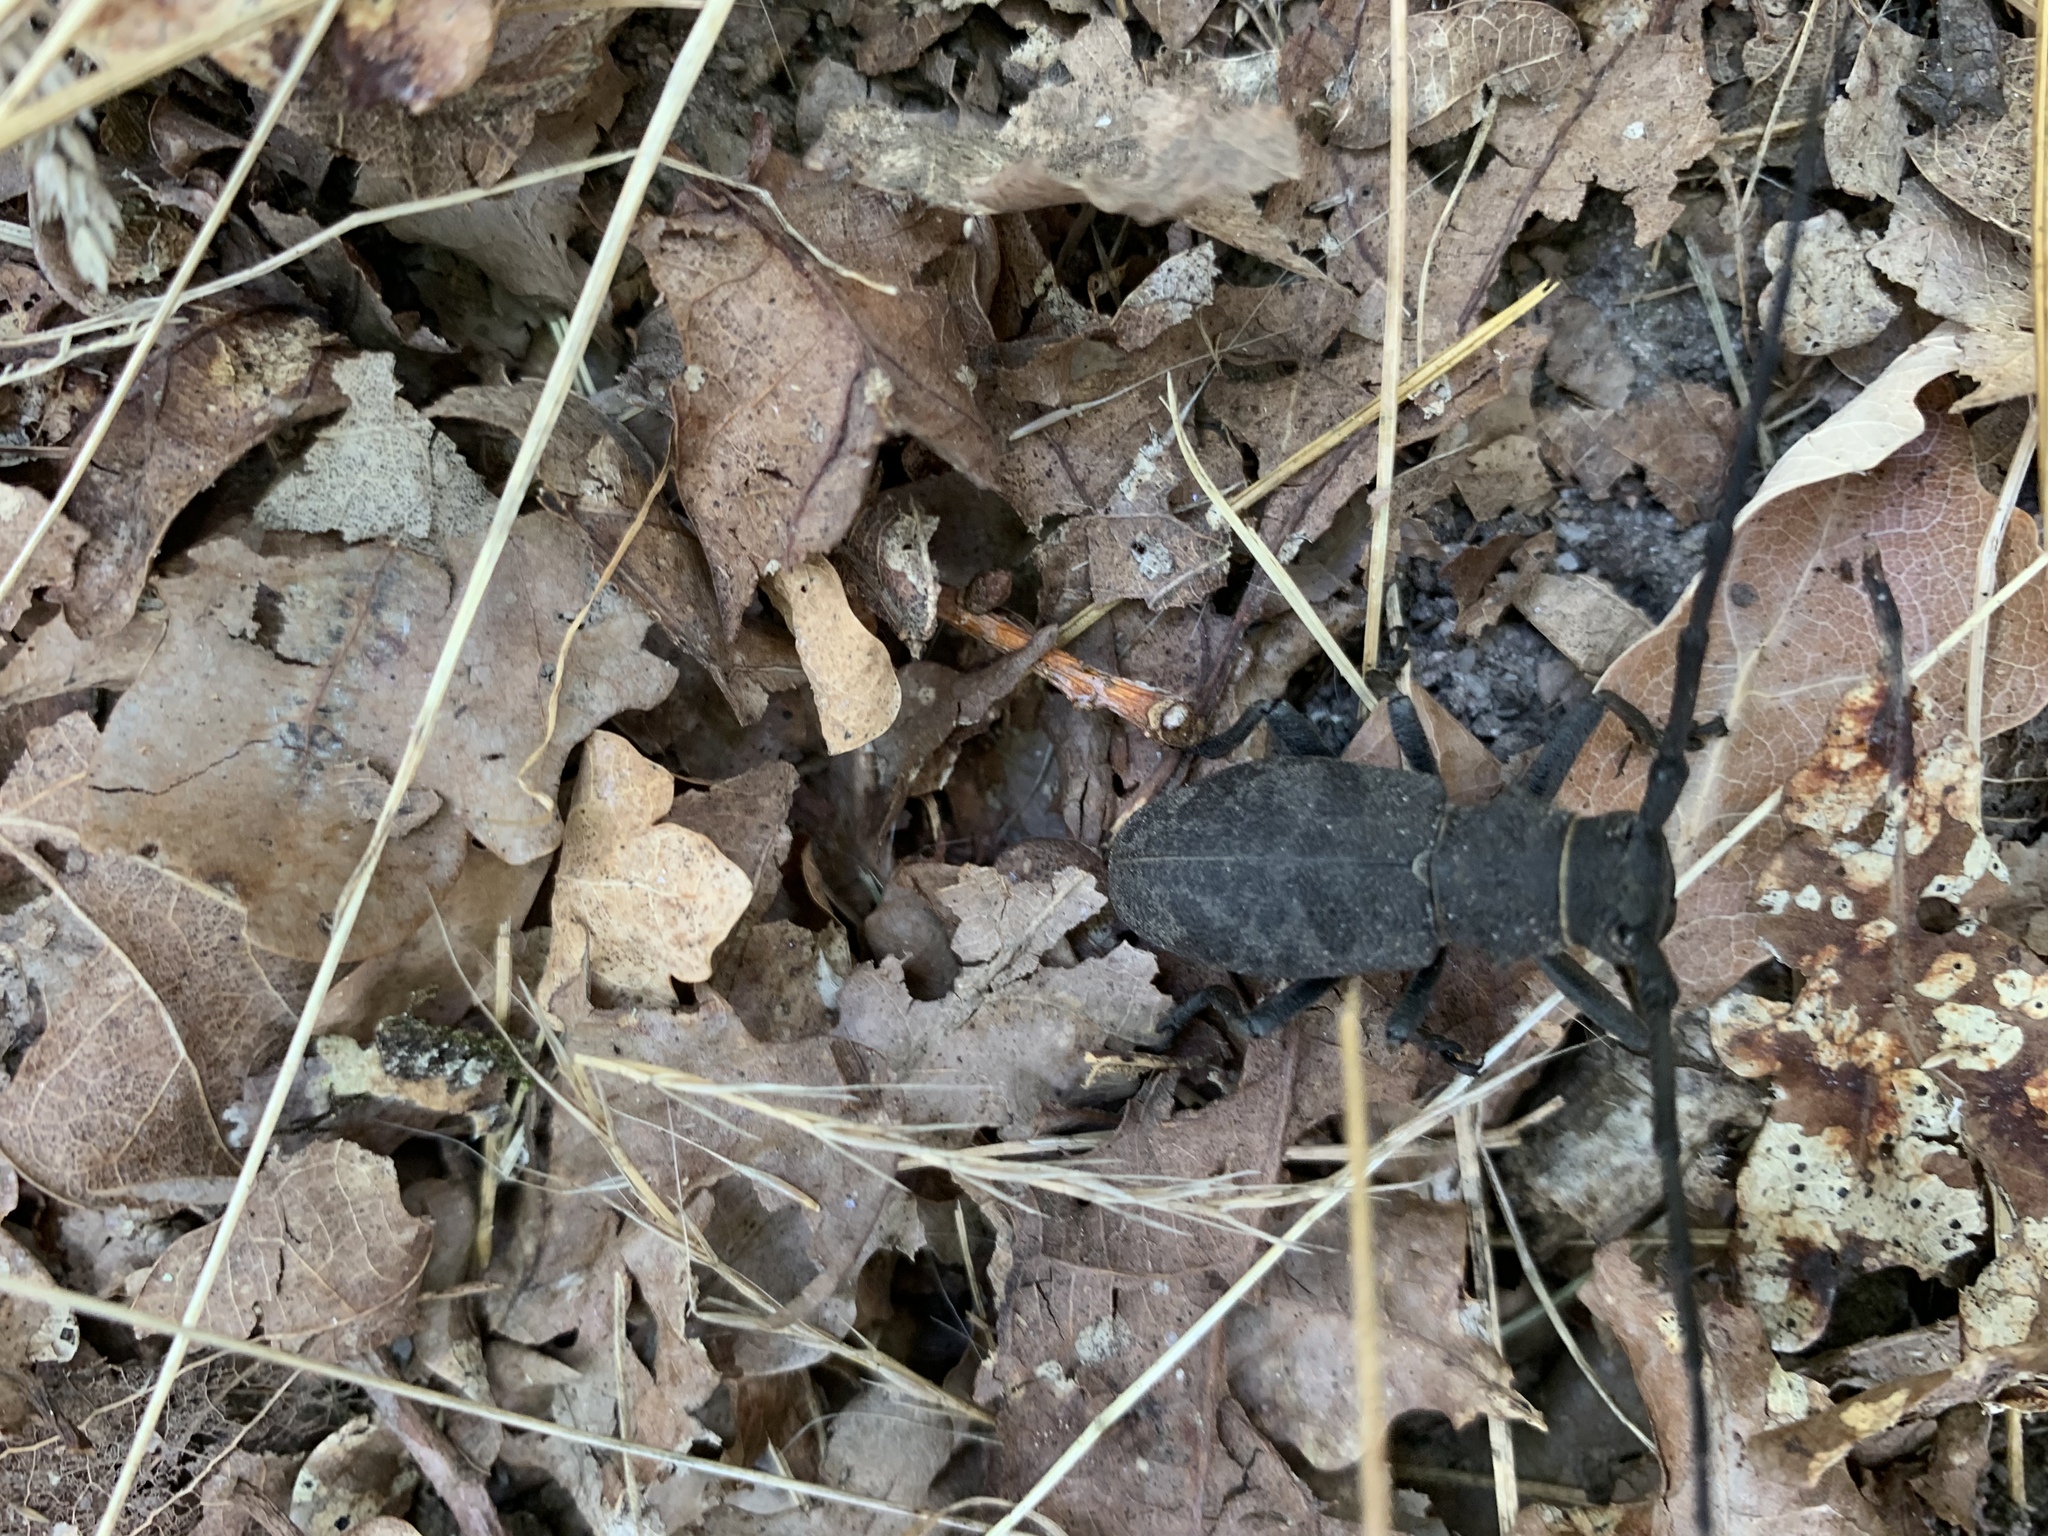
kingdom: Animalia
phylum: Arthropoda
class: Insecta
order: Coleoptera
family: Cerambycidae
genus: Morimus
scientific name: Morimus asper
